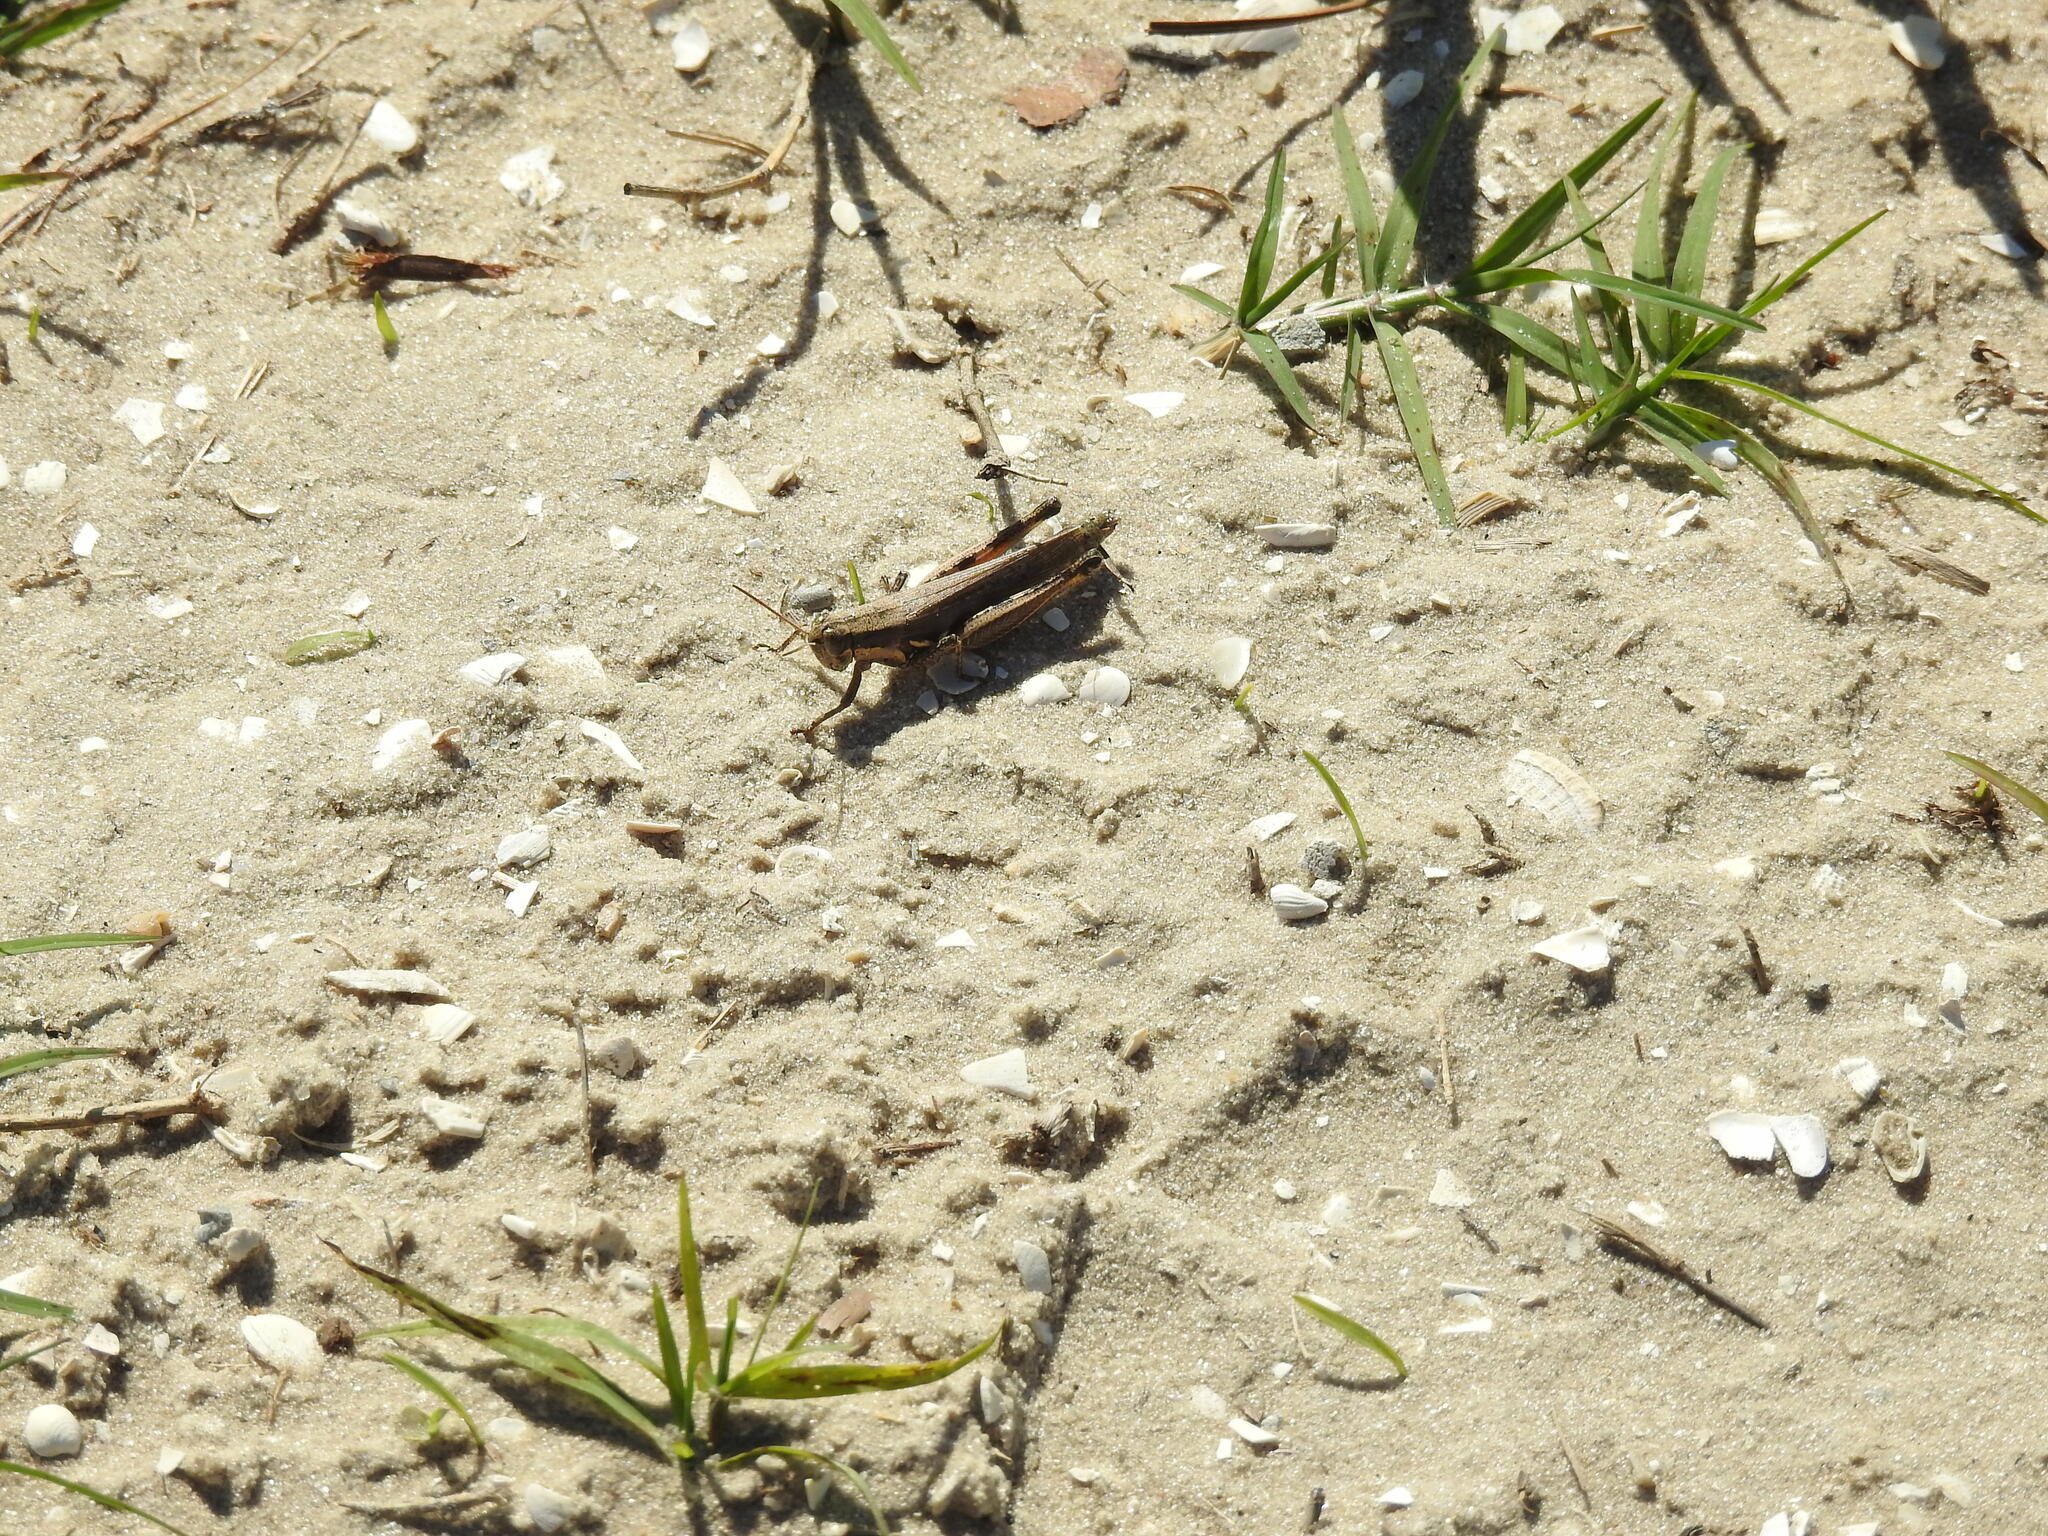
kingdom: Animalia
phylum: Arthropoda
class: Insecta
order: Orthoptera
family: Acrididae
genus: Paroxya
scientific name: Paroxya atlantica
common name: Atlantic grasshopper
